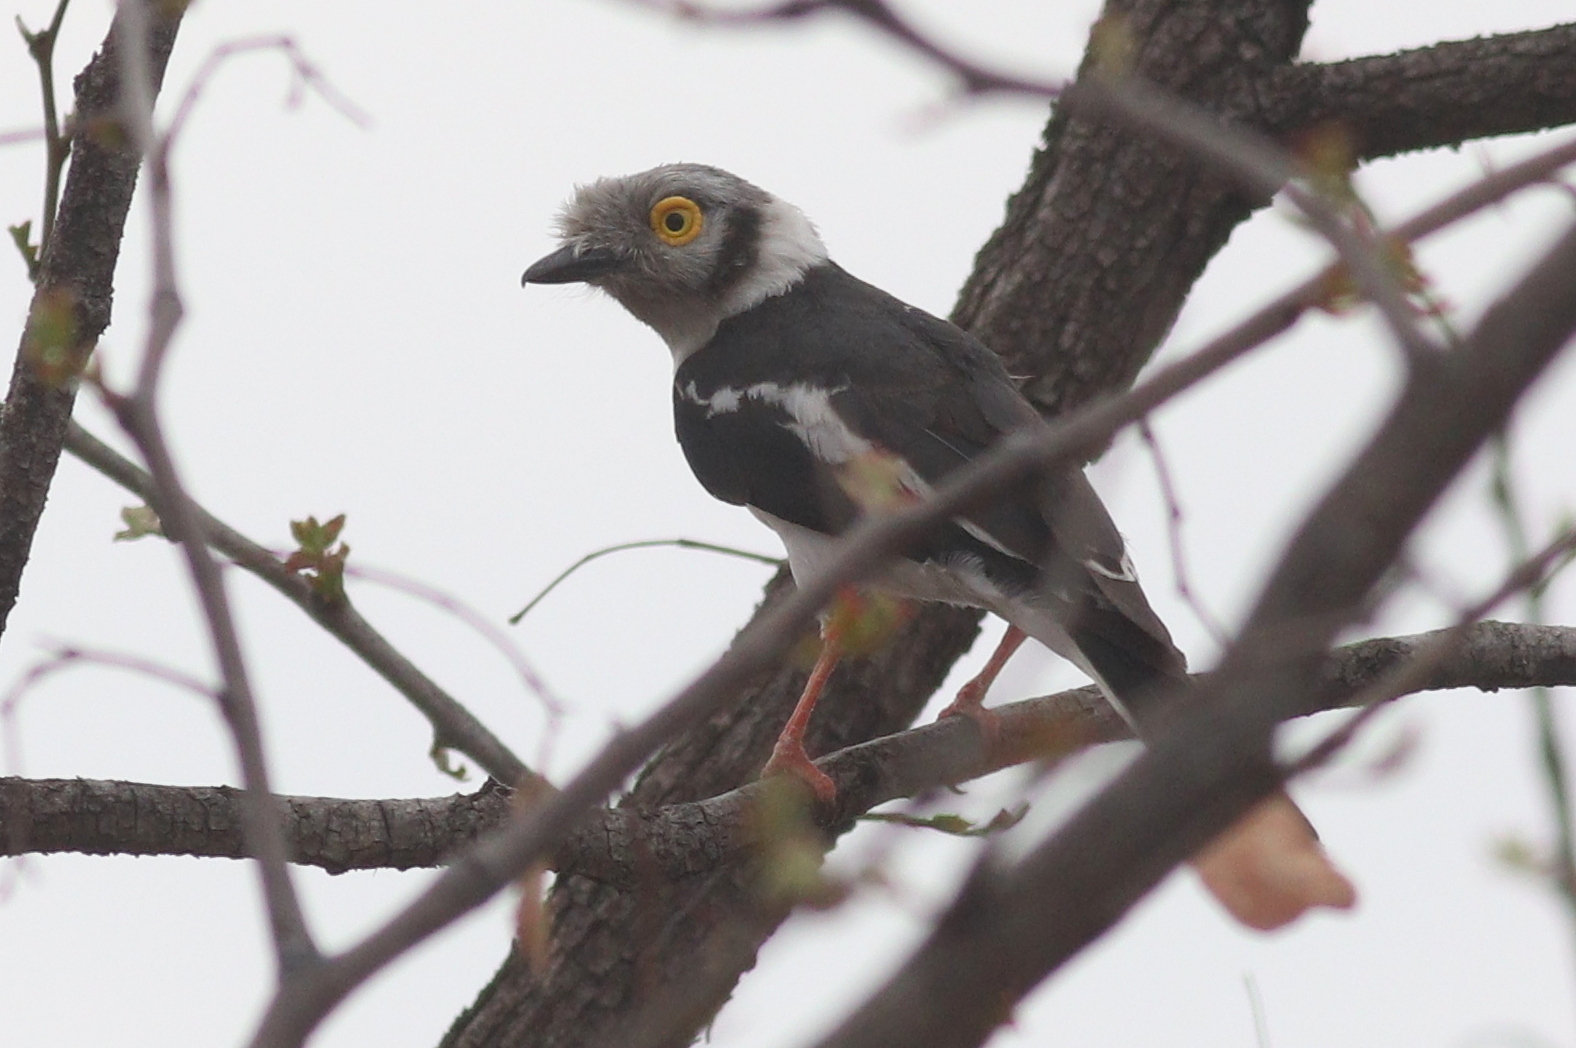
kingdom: Animalia
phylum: Chordata
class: Aves
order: Passeriformes
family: Prionopidae
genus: Prionops
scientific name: Prionops plumatus
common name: White-crested helmetshrike
